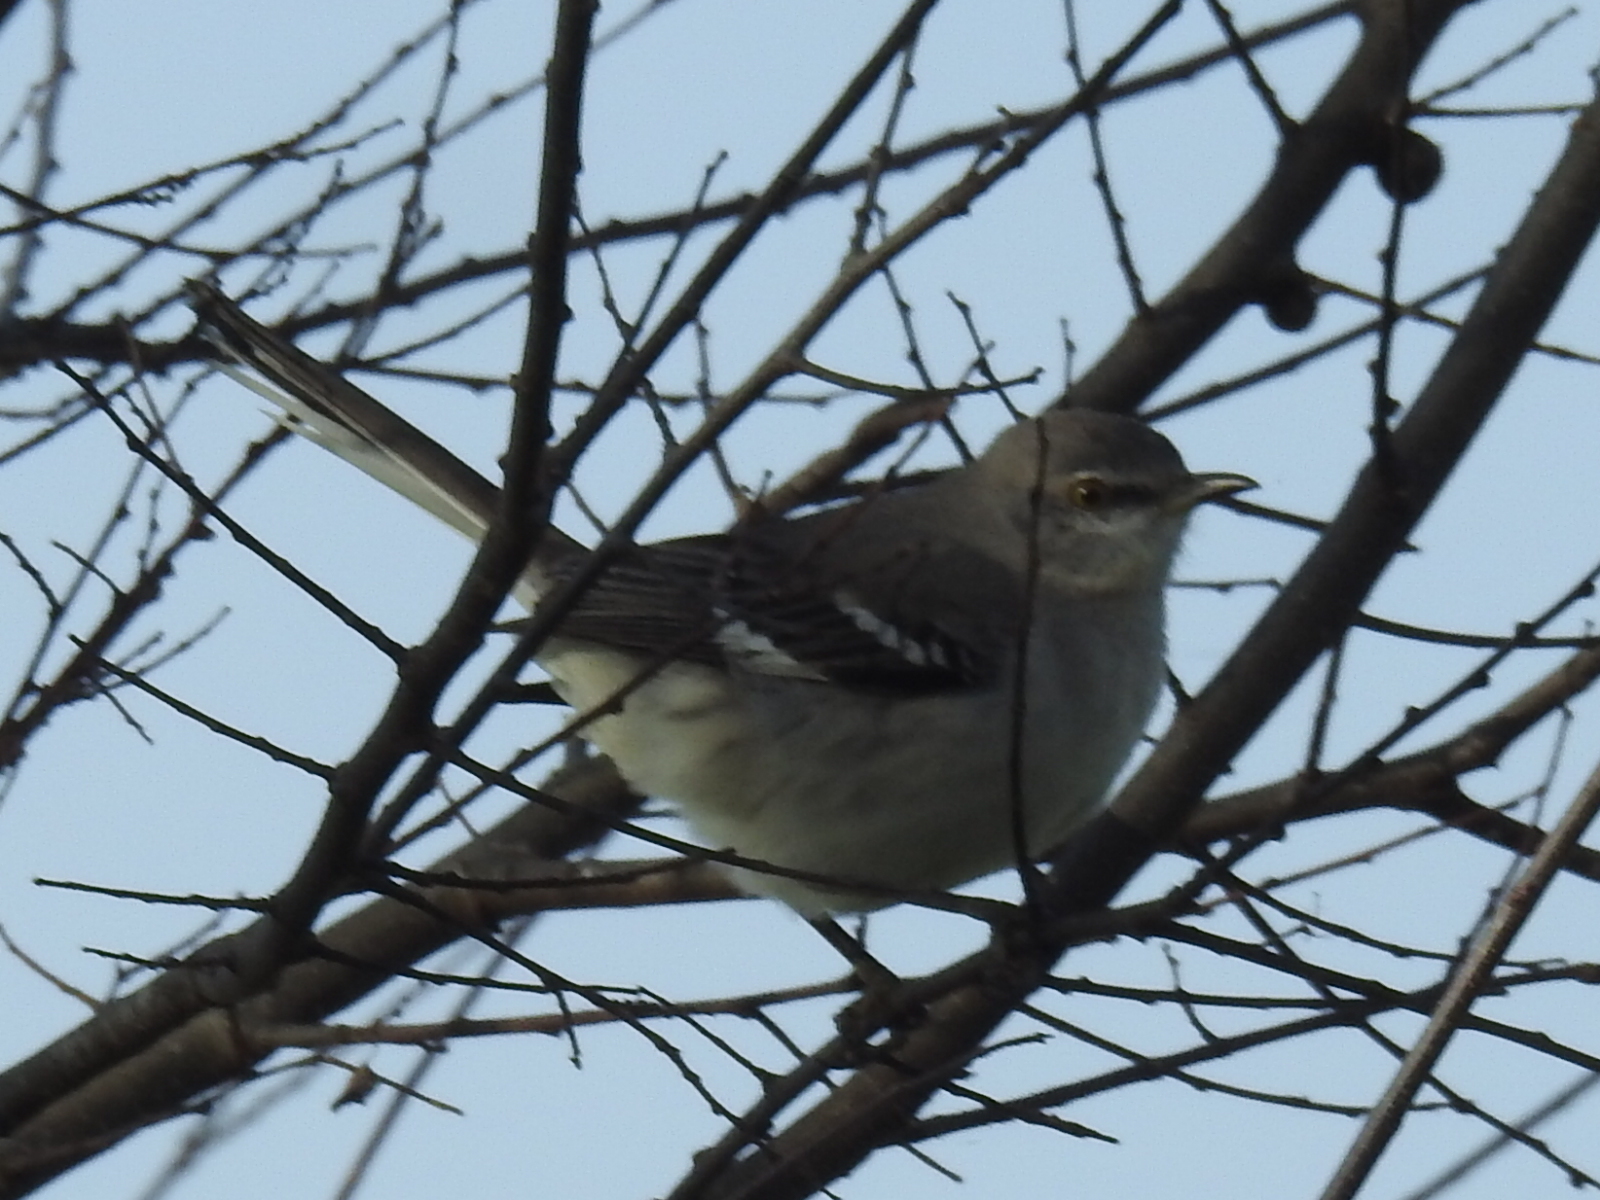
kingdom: Animalia
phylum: Chordata
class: Aves
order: Passeriformes
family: Mimidae
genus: Mimus
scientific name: Mimus polyglottos
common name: Northern mockingbird
